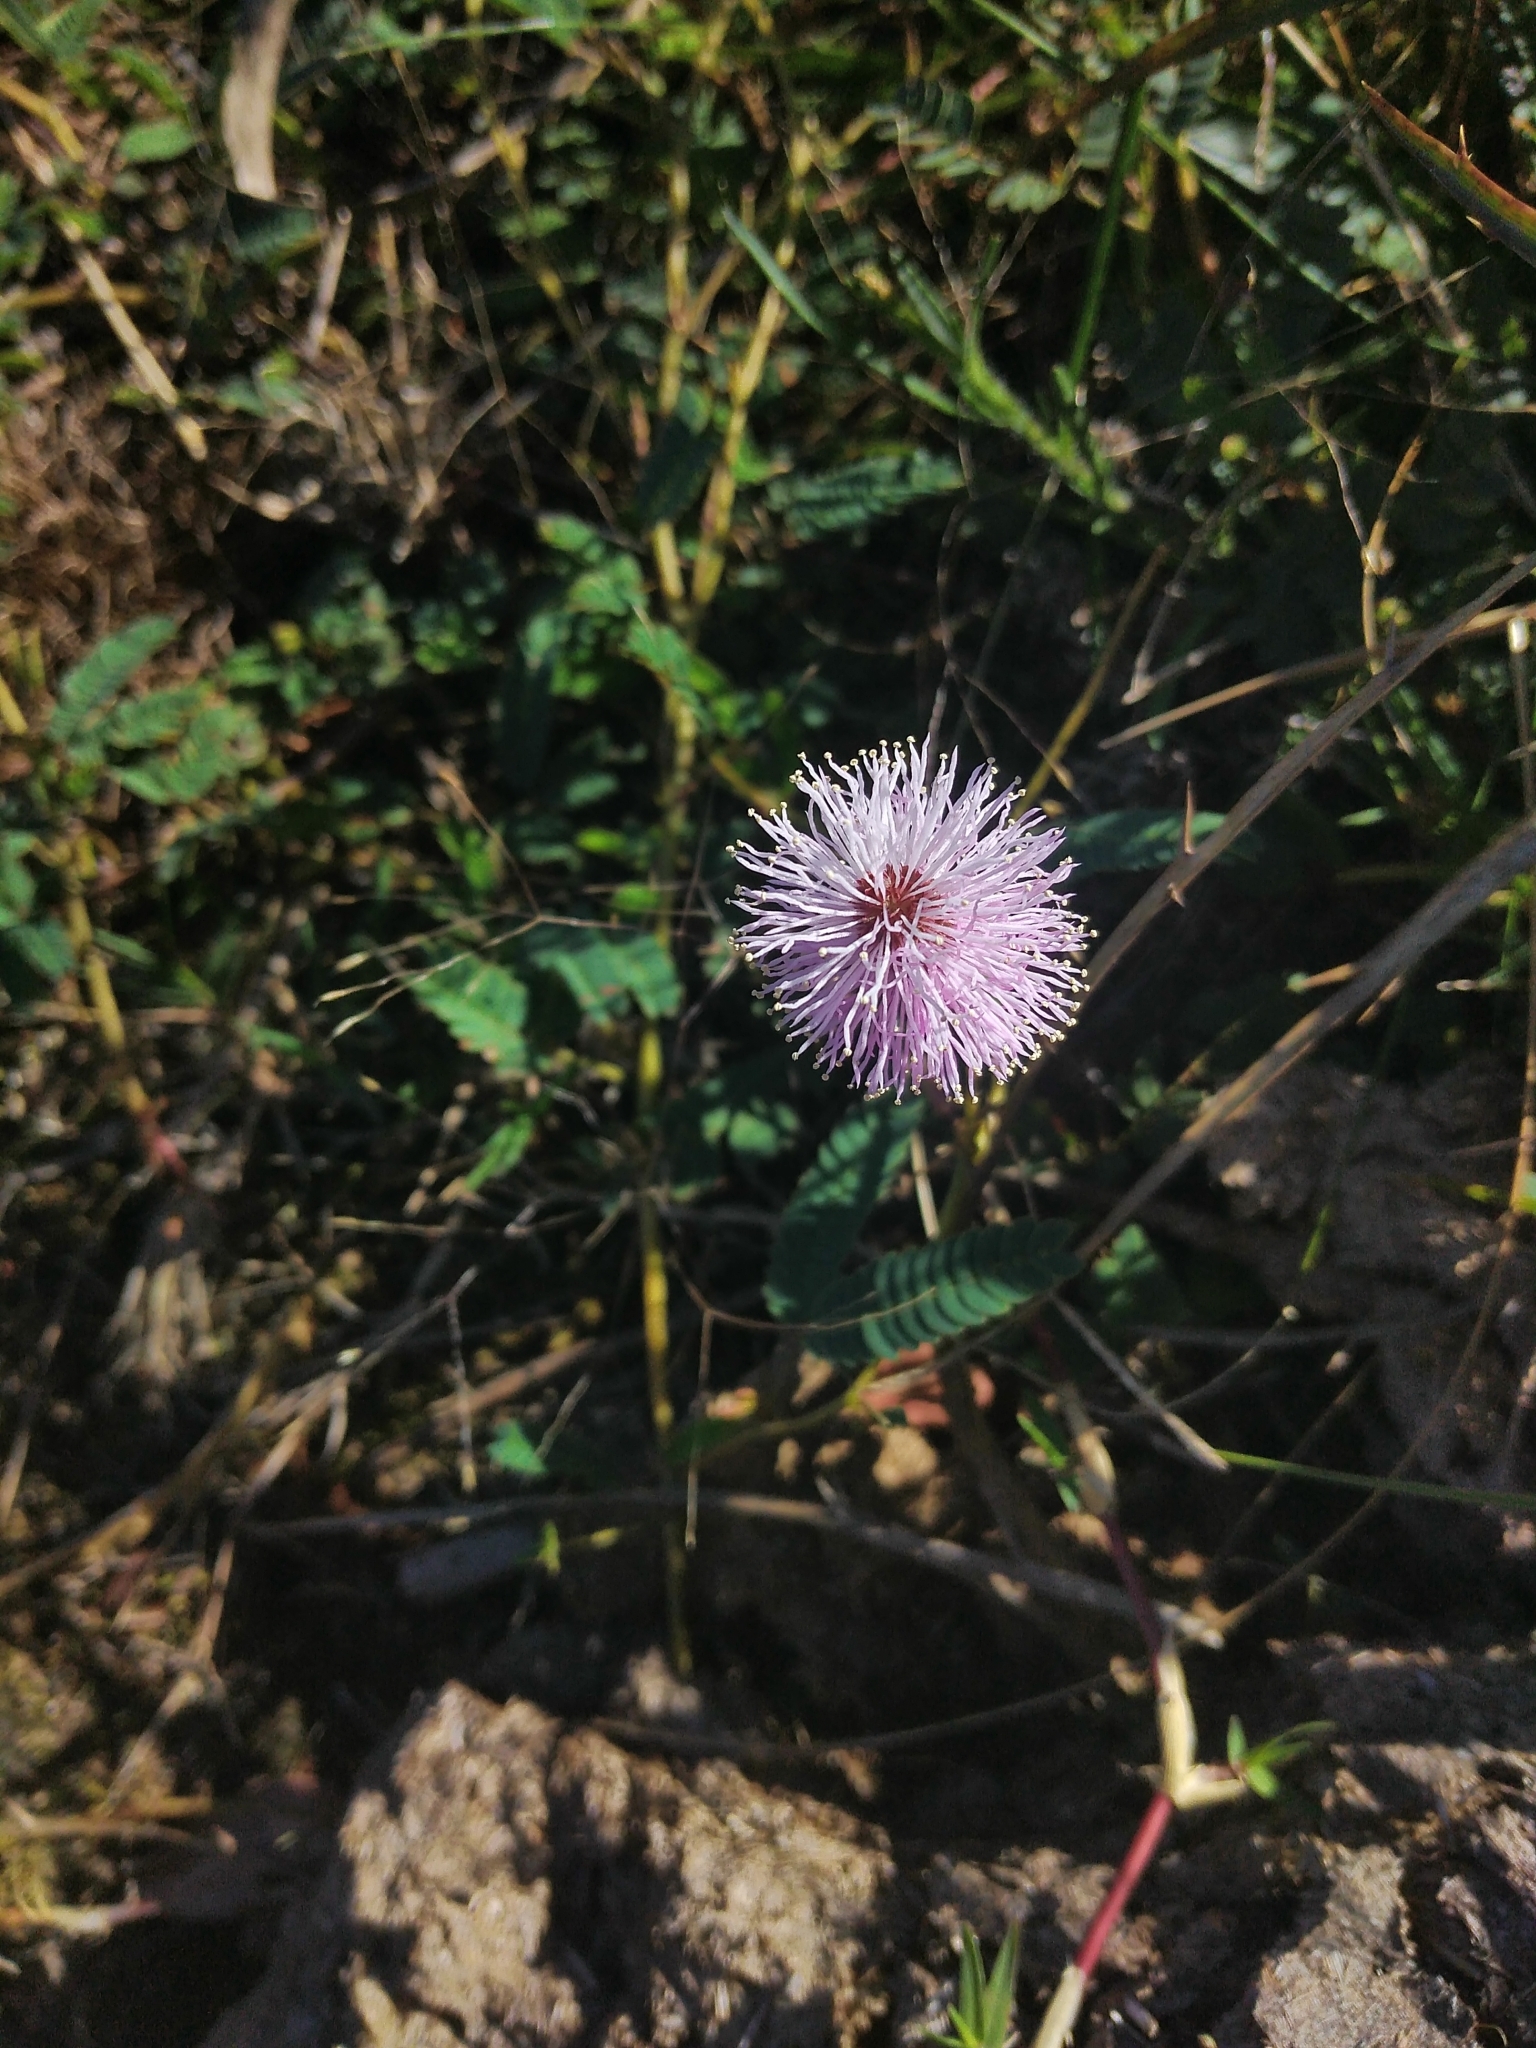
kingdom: Plantae
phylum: Tracheophyta
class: Magnoliopsida
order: Fabales
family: Fabaceae
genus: Mimosa
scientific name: Mimosa dutrae
